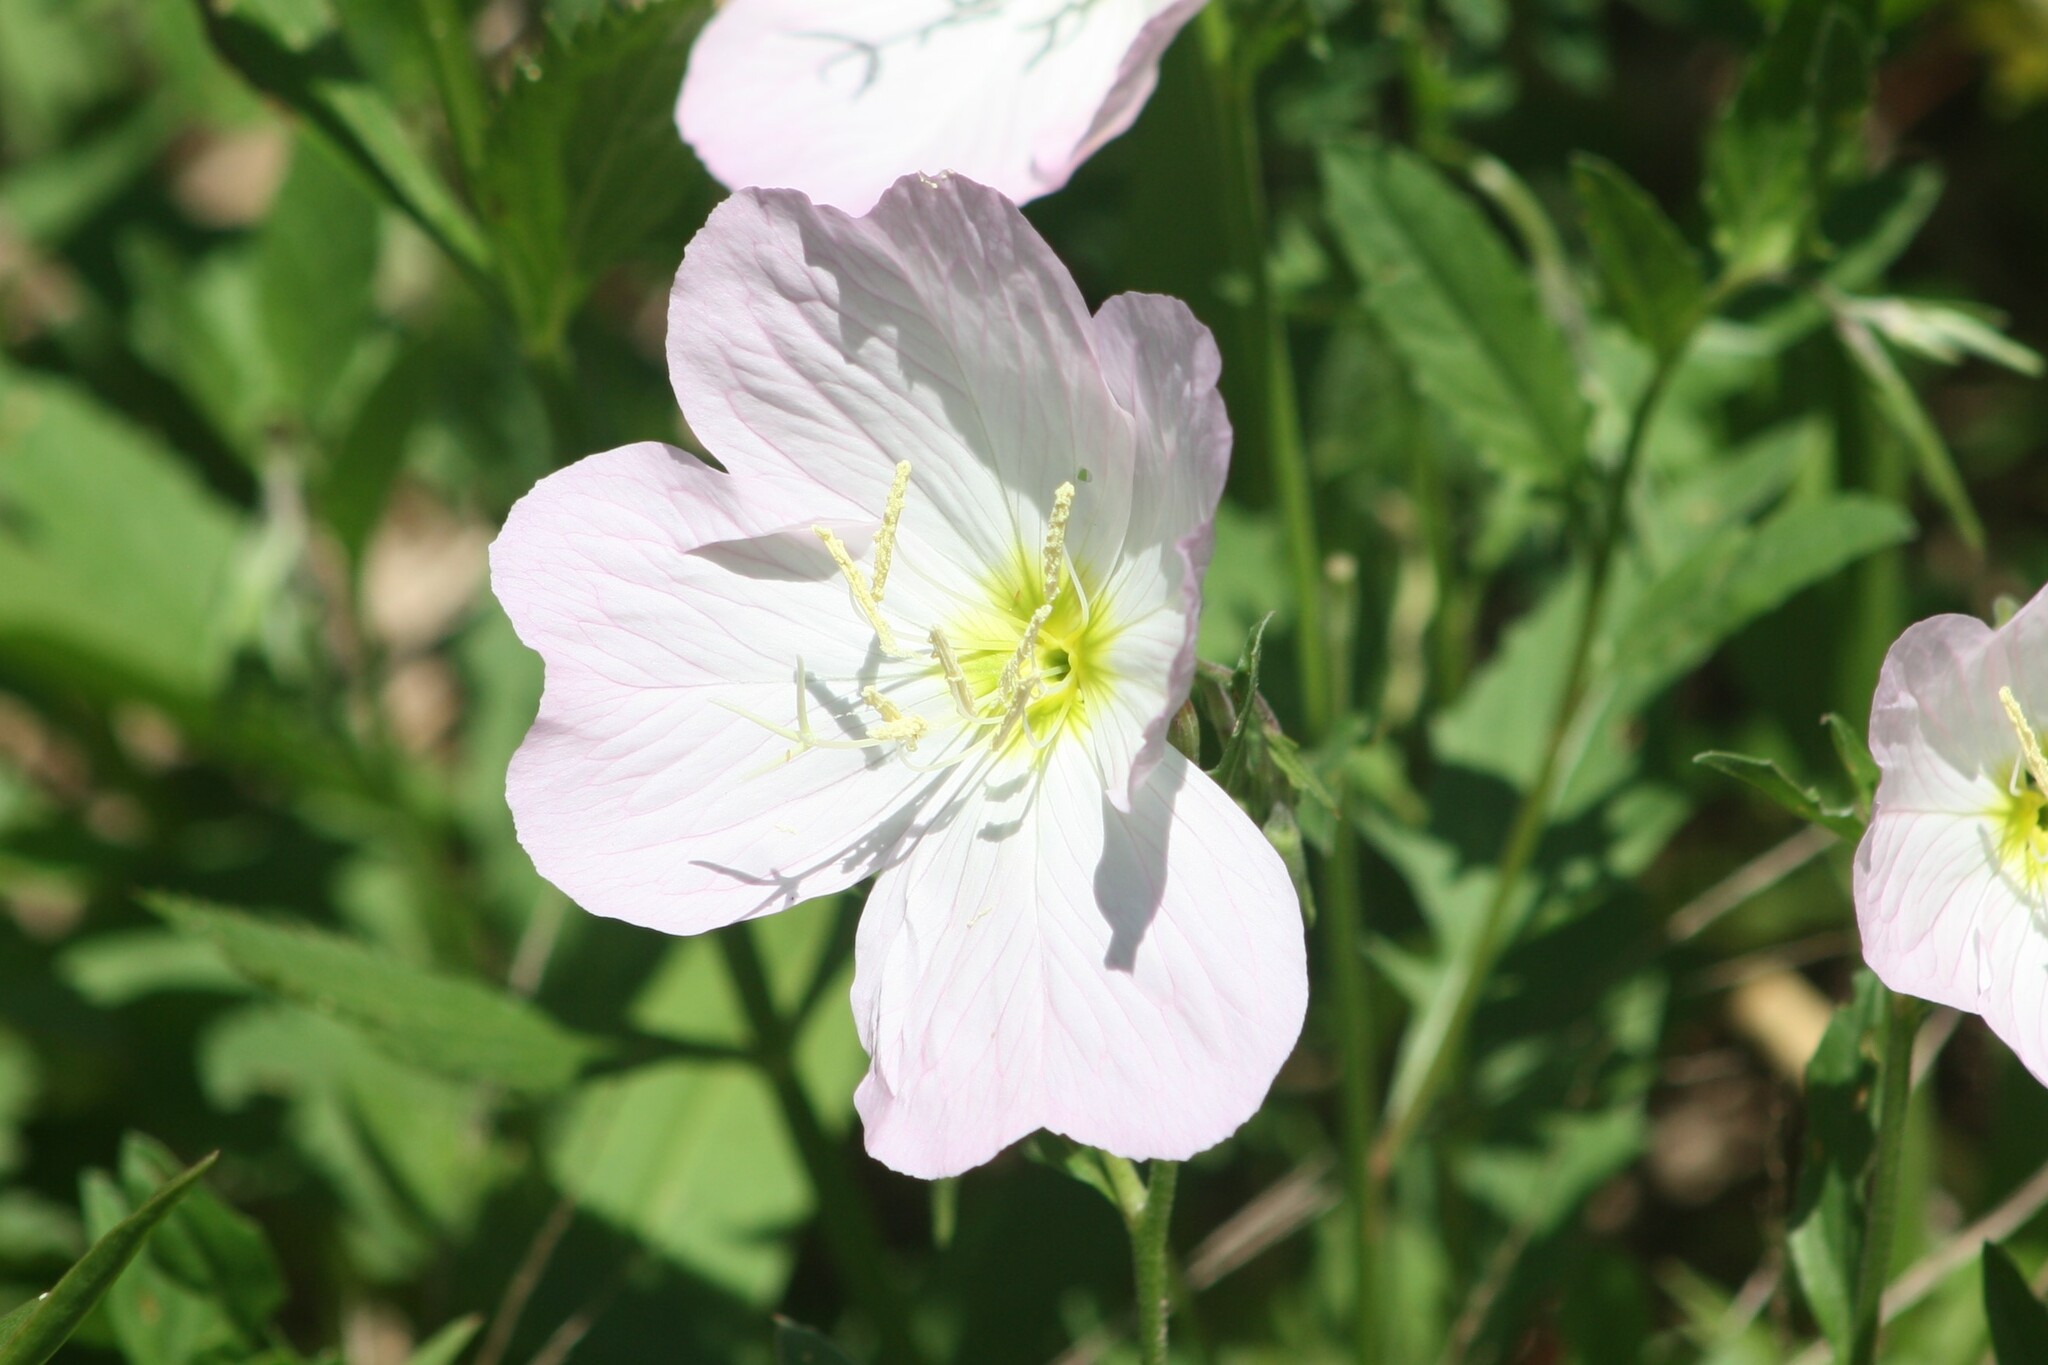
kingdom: Plantae
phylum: Tracheophyta
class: Magnoliopsida
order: Myrtales
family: Onagraceae
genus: Oenothera
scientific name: Oenothera speciosa
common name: White evening-primrose
